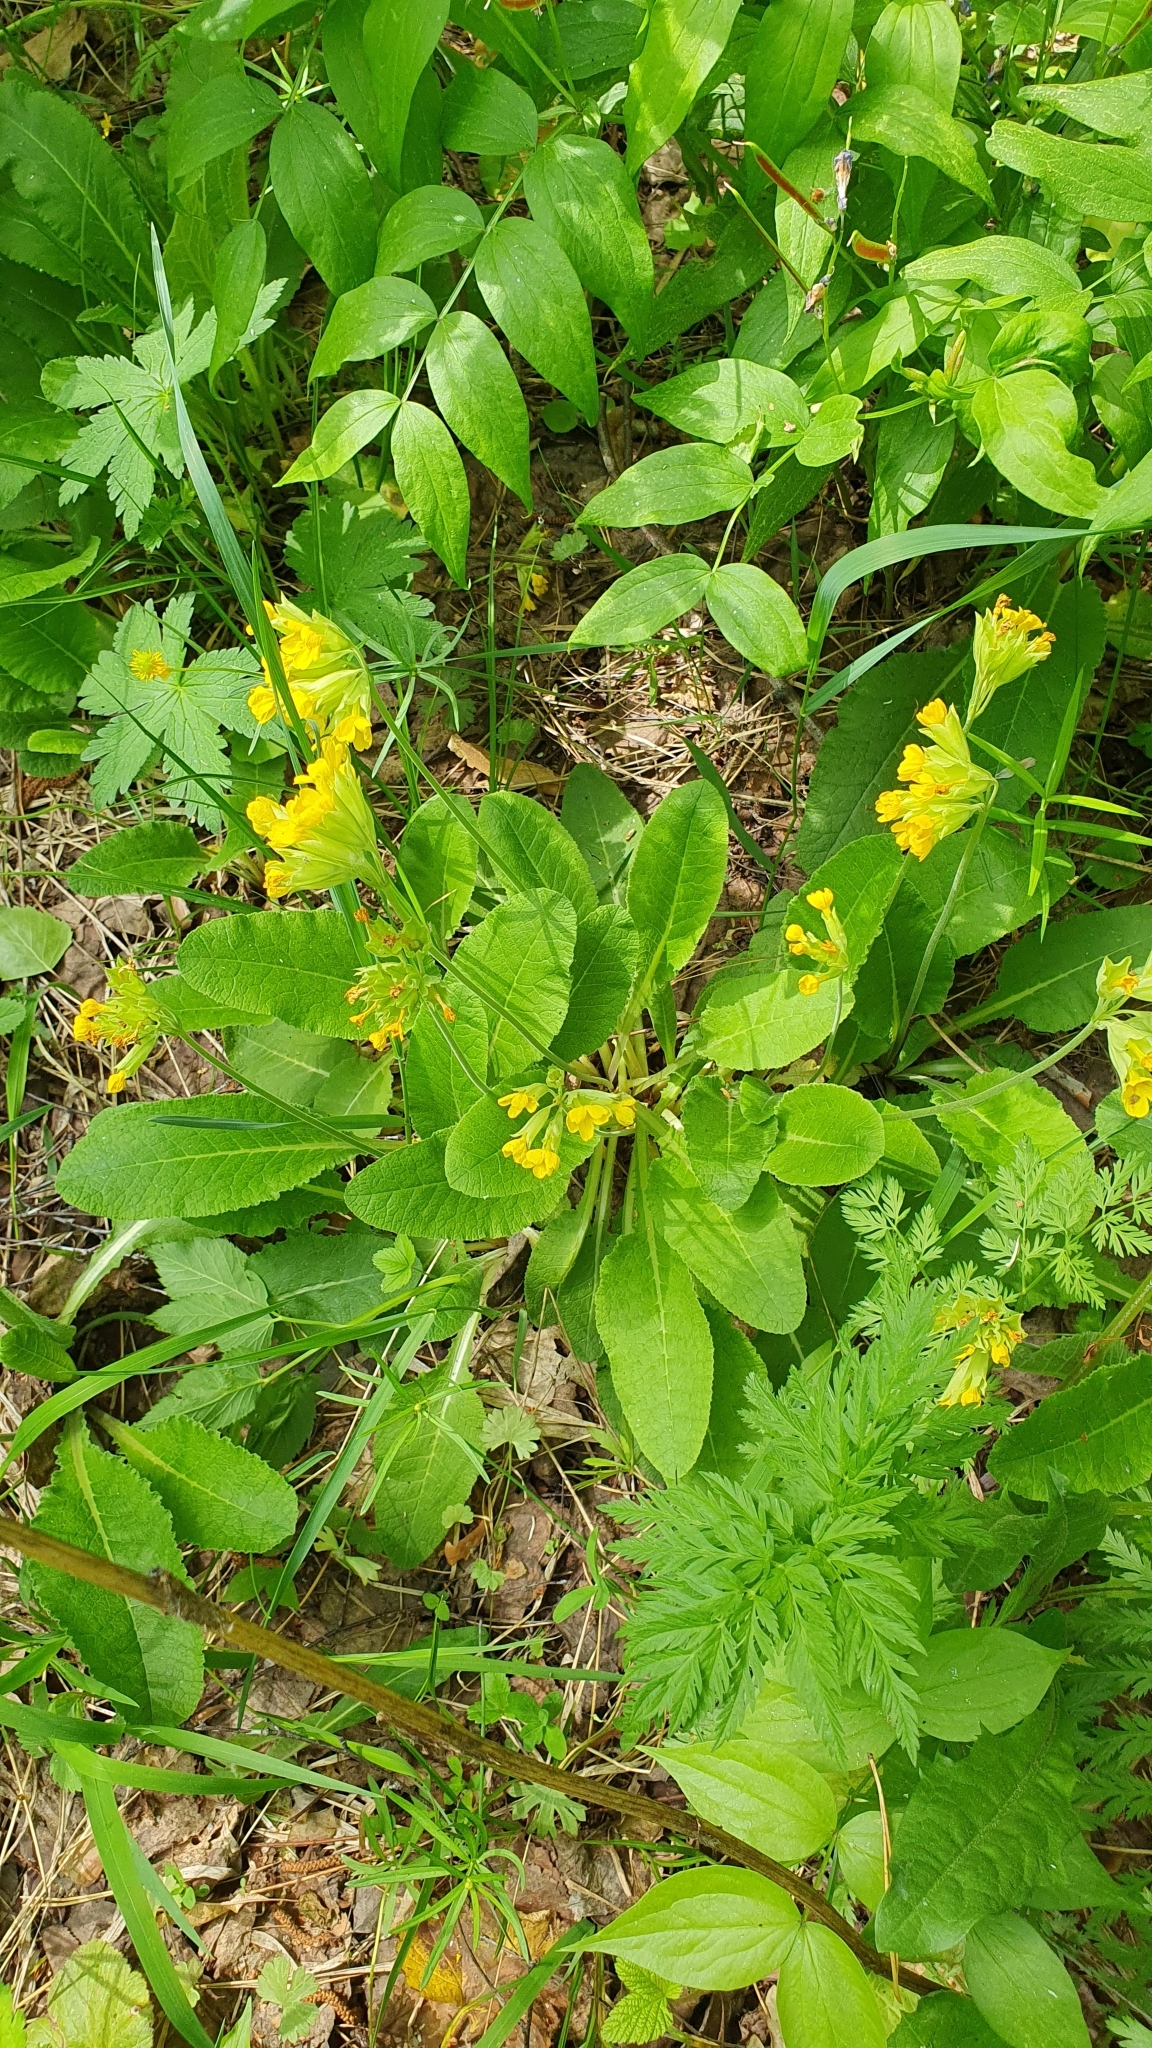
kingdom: Plantae
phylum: Tracheophyta
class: Magnoliopsida
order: Ericales
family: Primulaceae
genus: Primula
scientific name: Primula veris
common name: Cowslip
